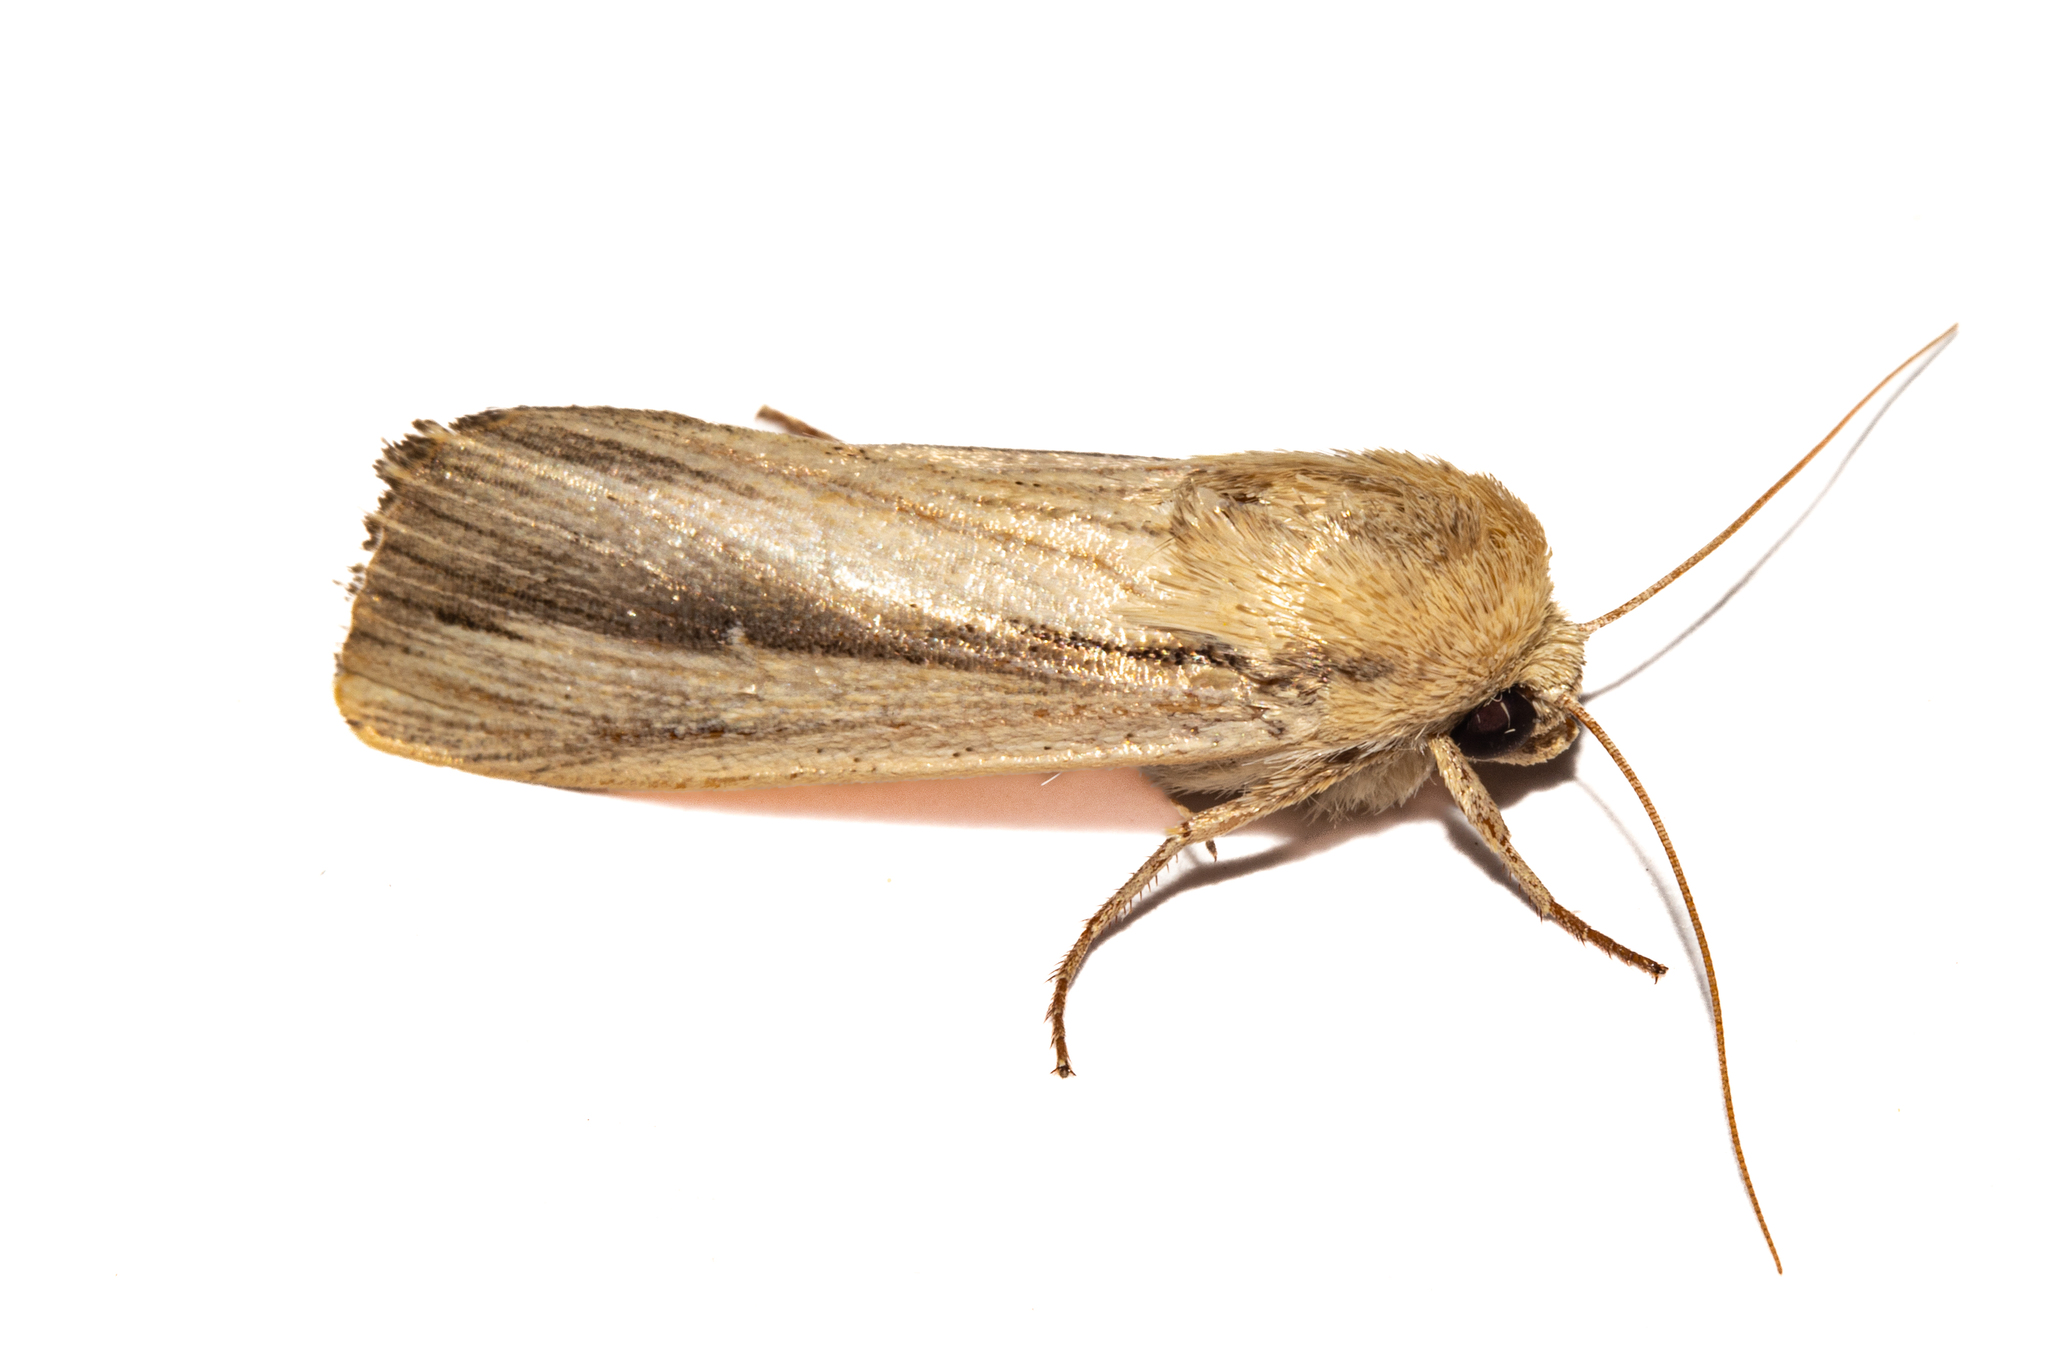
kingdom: Animalia
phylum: Arthropoda
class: Insecta
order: Lepidoptera
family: Noctuidae
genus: Leucania
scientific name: Leucania stenographa
